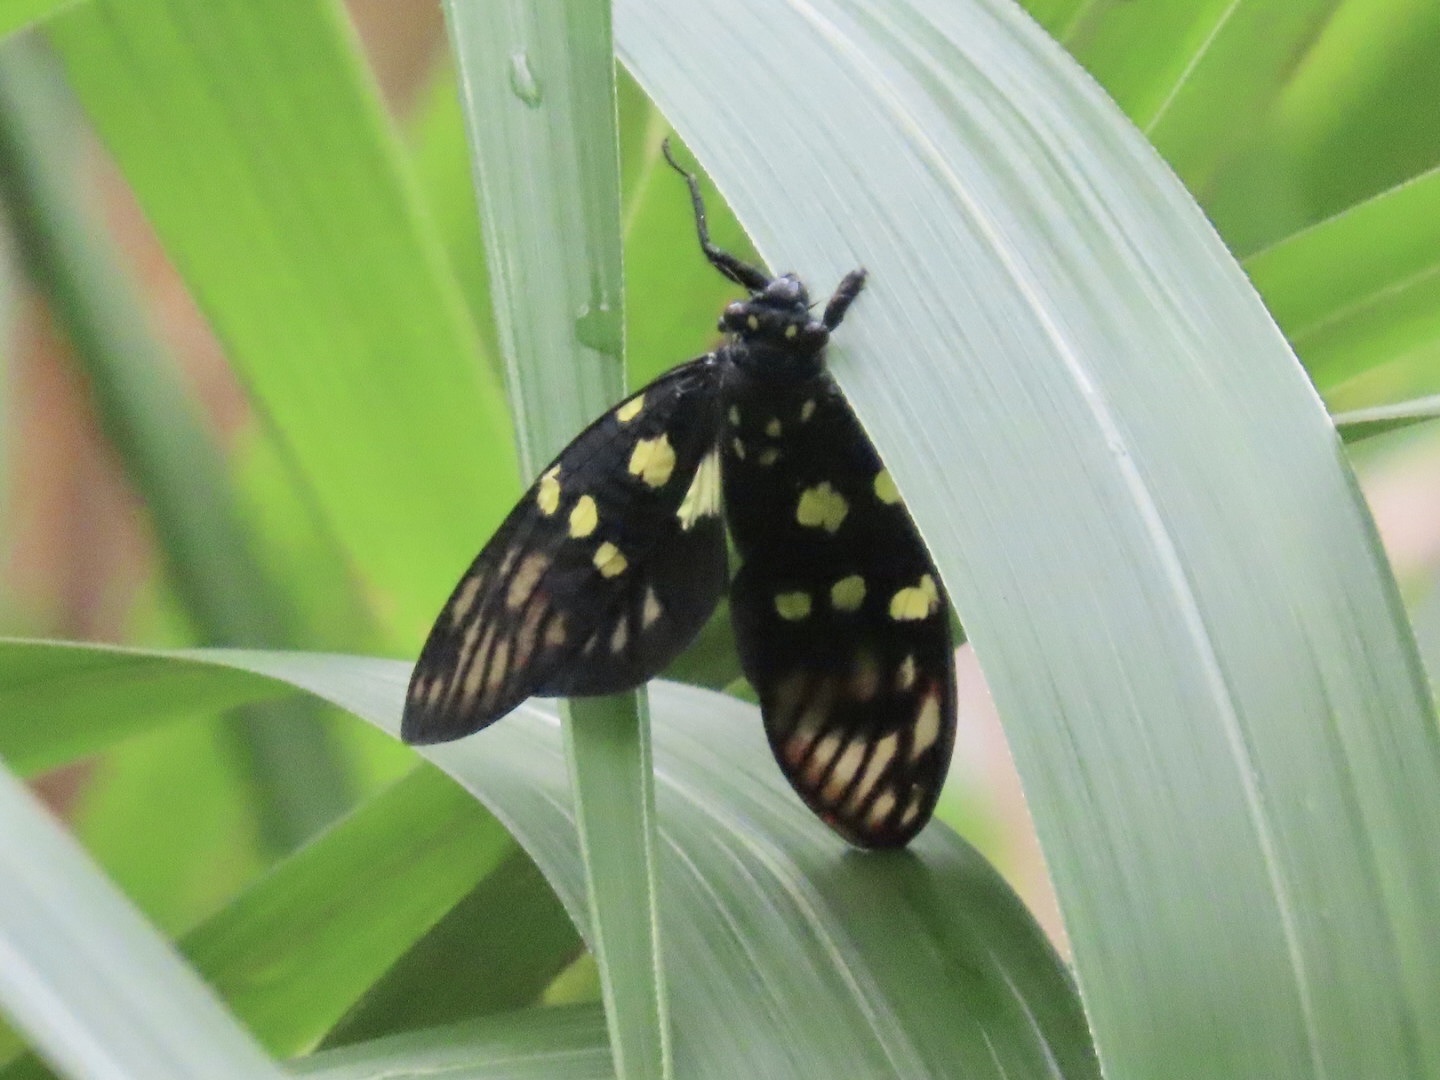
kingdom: Animalia
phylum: Arthropoda
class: Insecta
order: Hemiptera
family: Cicadidae
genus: Gaeana
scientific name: Gaeana maculata
